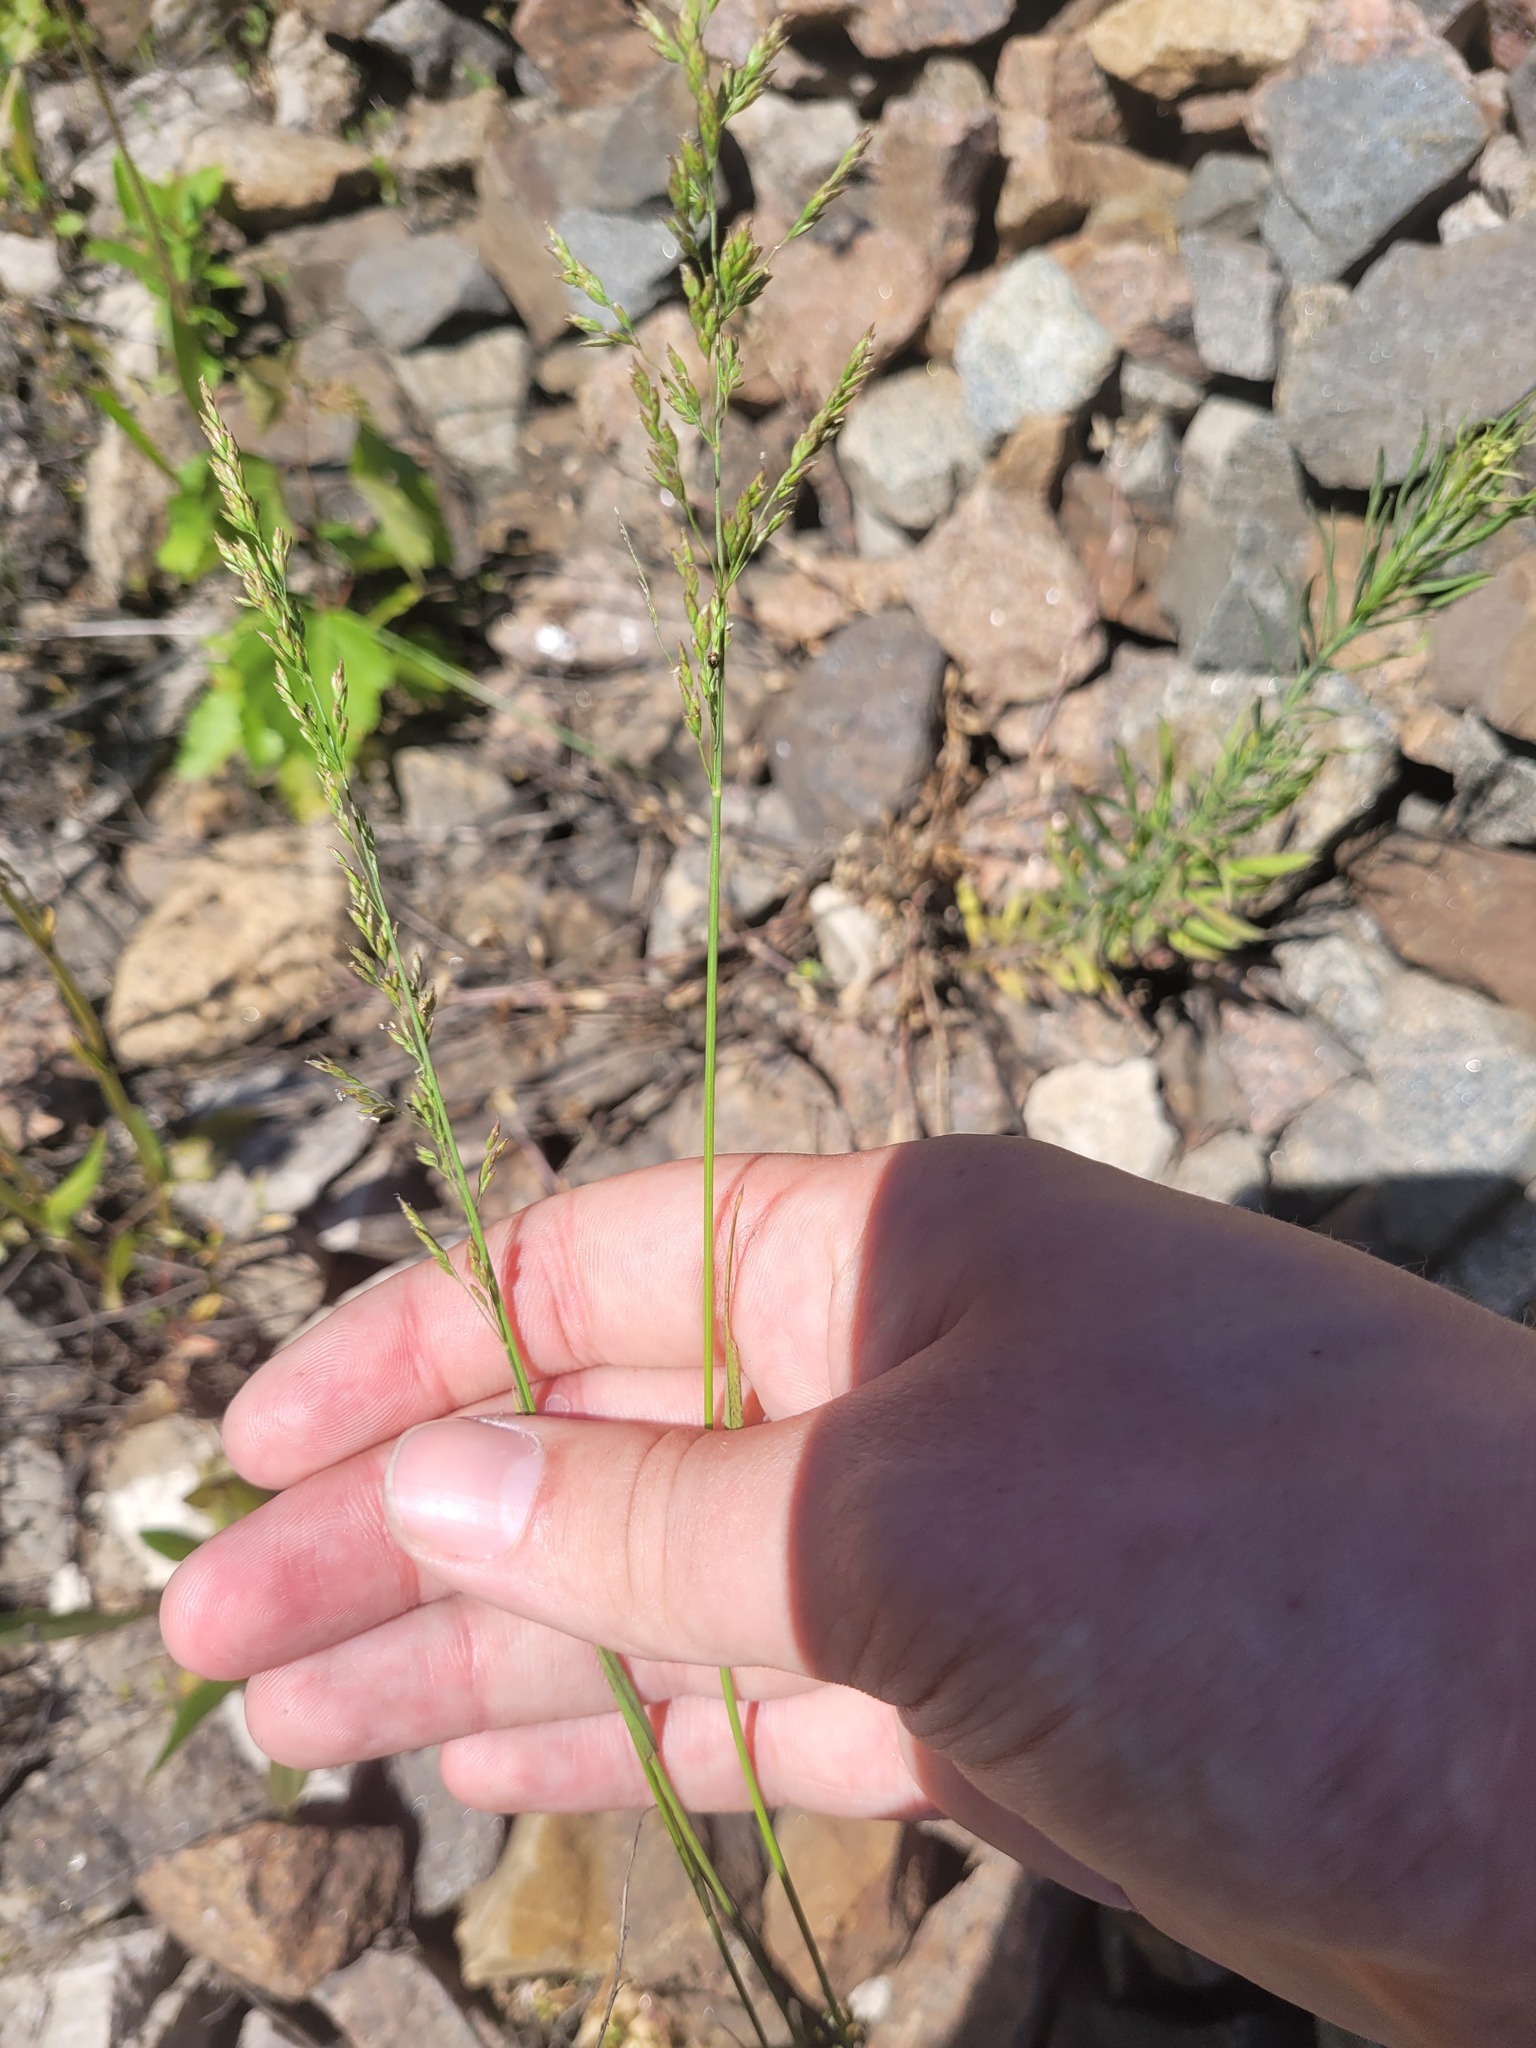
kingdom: Plantae
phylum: Tracheophyta
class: Liliopsida
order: Poales
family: Poaceae
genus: Poa
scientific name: Poa compressa
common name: Canada bluegrass
